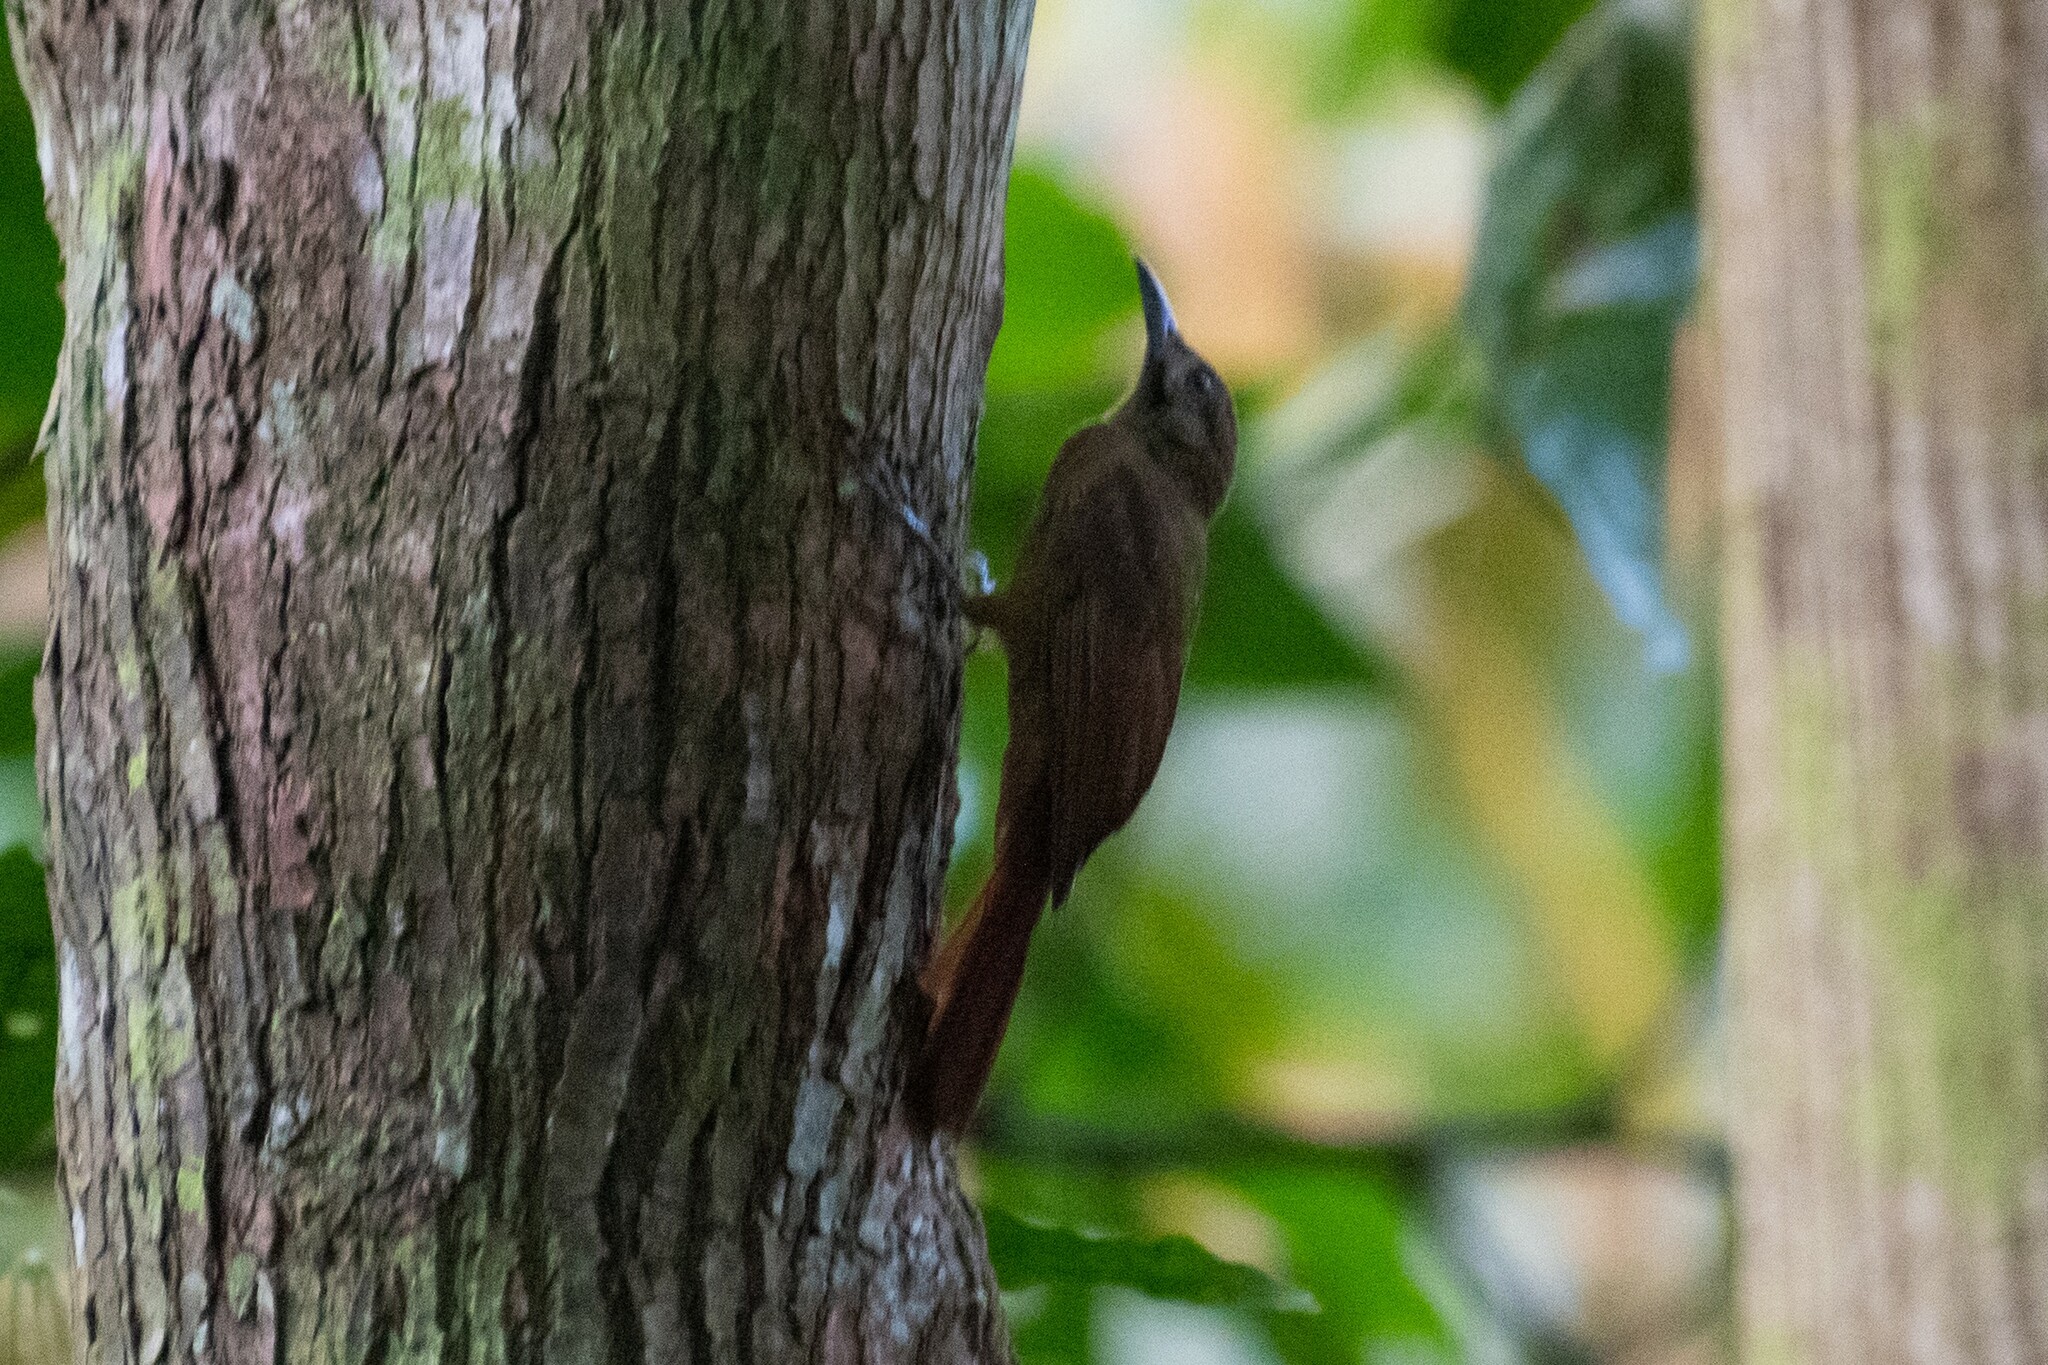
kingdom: Animalia
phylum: Chordata
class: Aves
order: Passeriformes
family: Furnariidae
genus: Dendrocincla
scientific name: Dendrocincla fuliginosa
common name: Plain-brown woodcreeper
